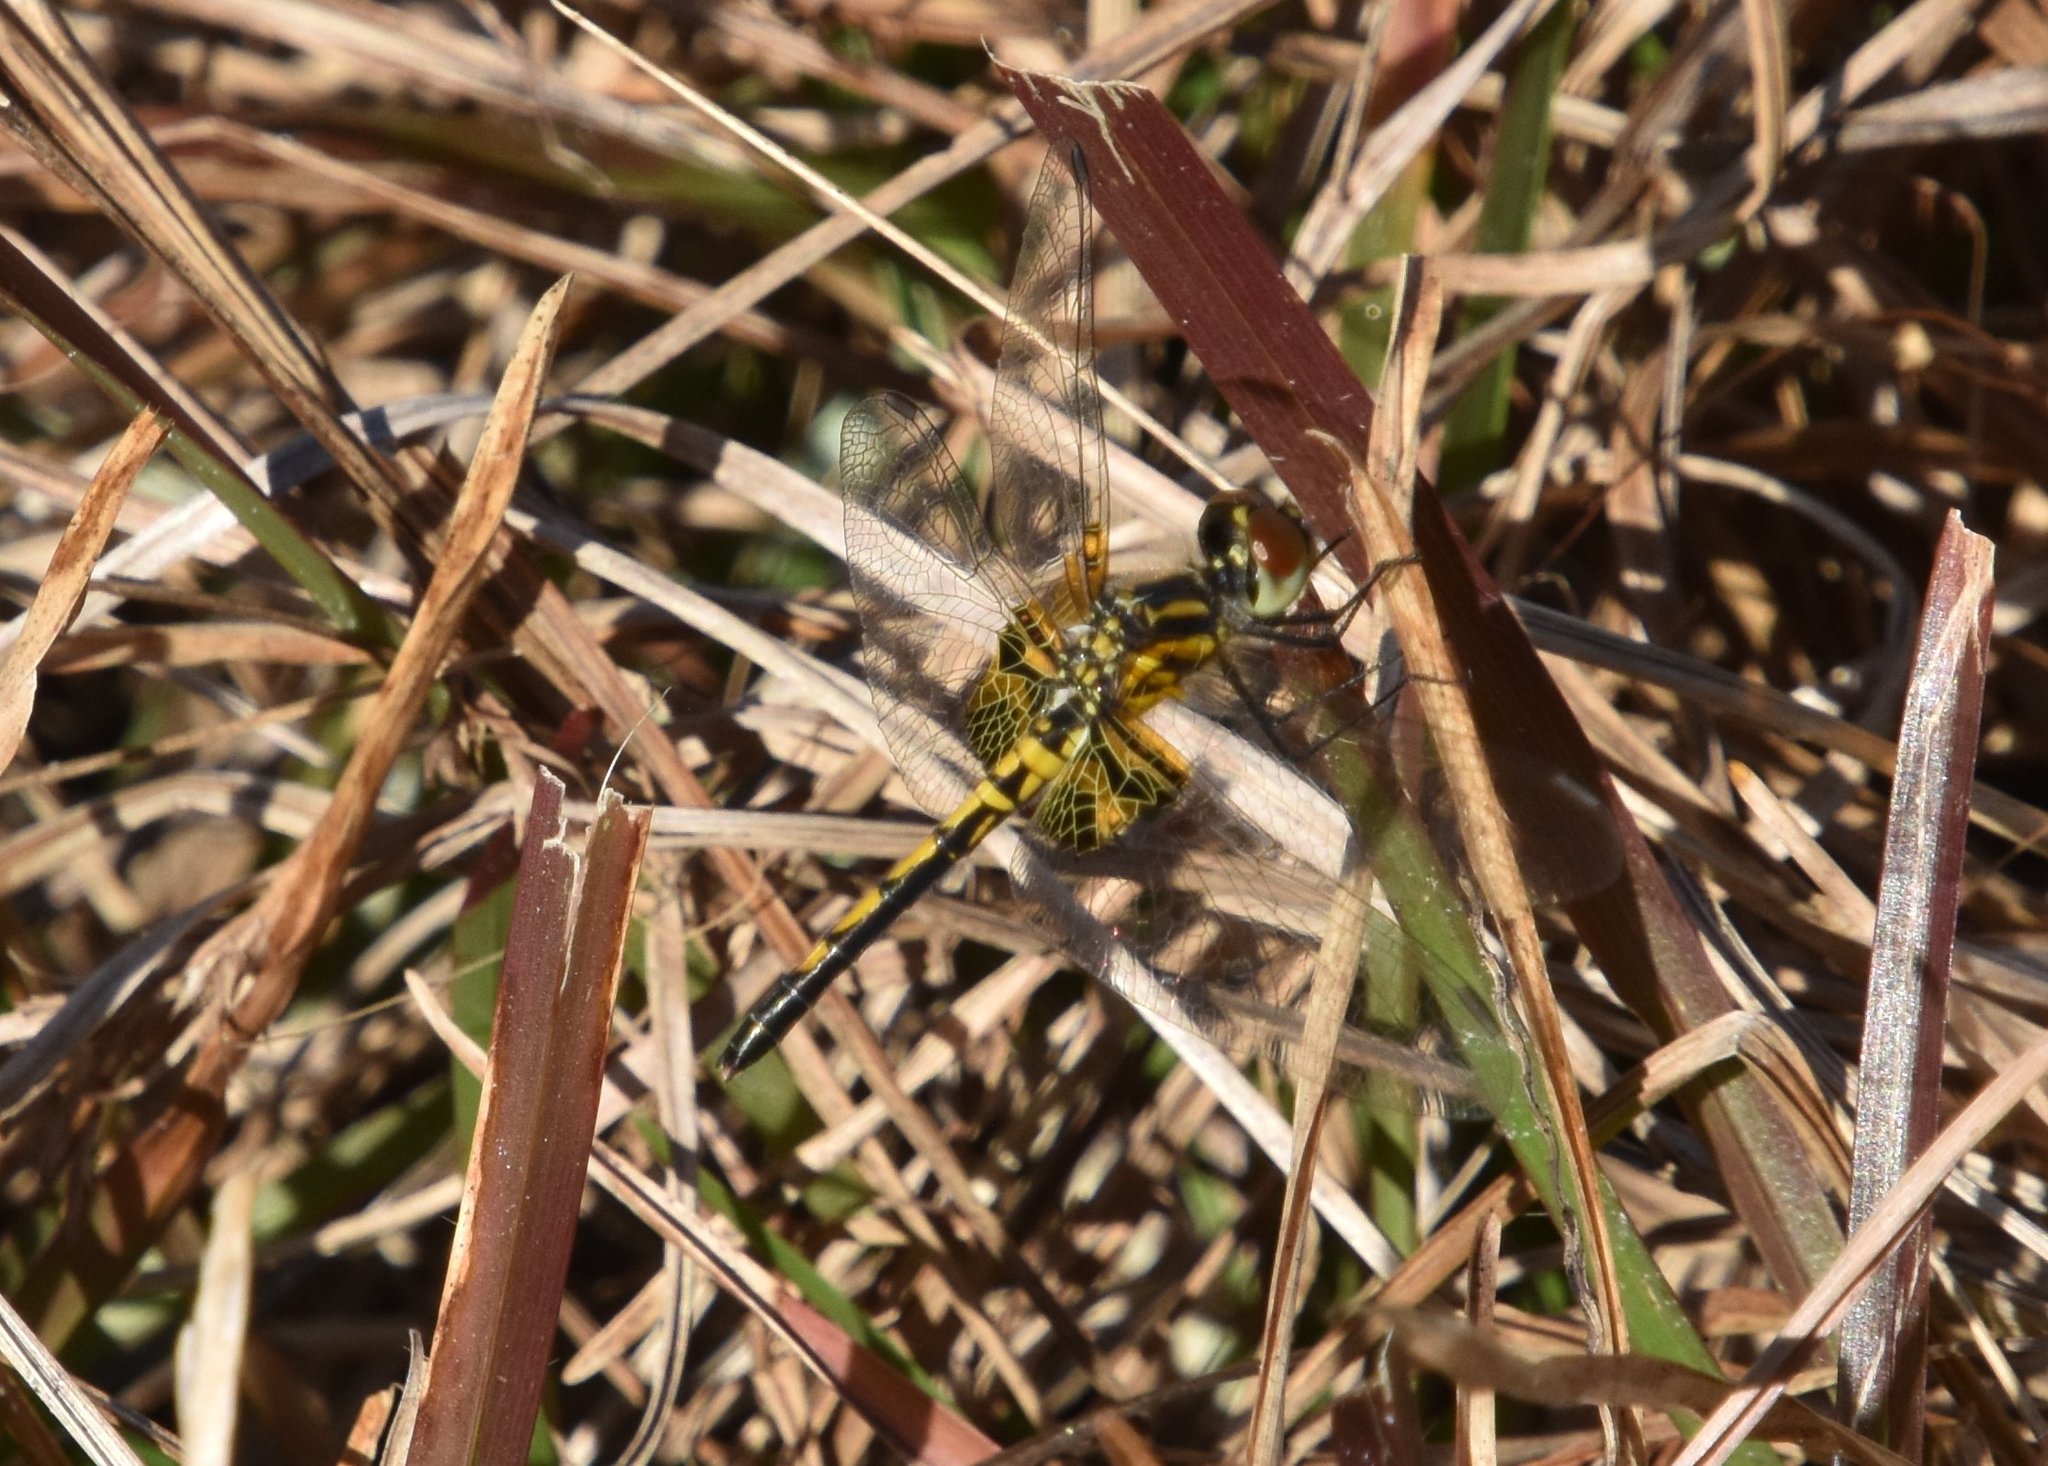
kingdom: Animalia
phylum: Arthropoda
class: Insecta
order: Odonata
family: Libellulidae
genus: Celithemis
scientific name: Celithemis ornata
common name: Ornate pennant
